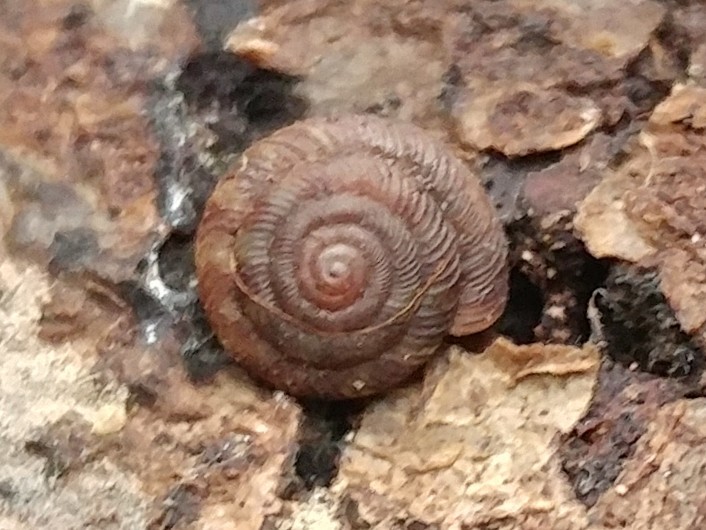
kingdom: Animalia
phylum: Mollusca
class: Gastropoda
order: Stylommatophora
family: Discidae
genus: Discus
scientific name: Discus rotundatus
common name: Rounded snail
